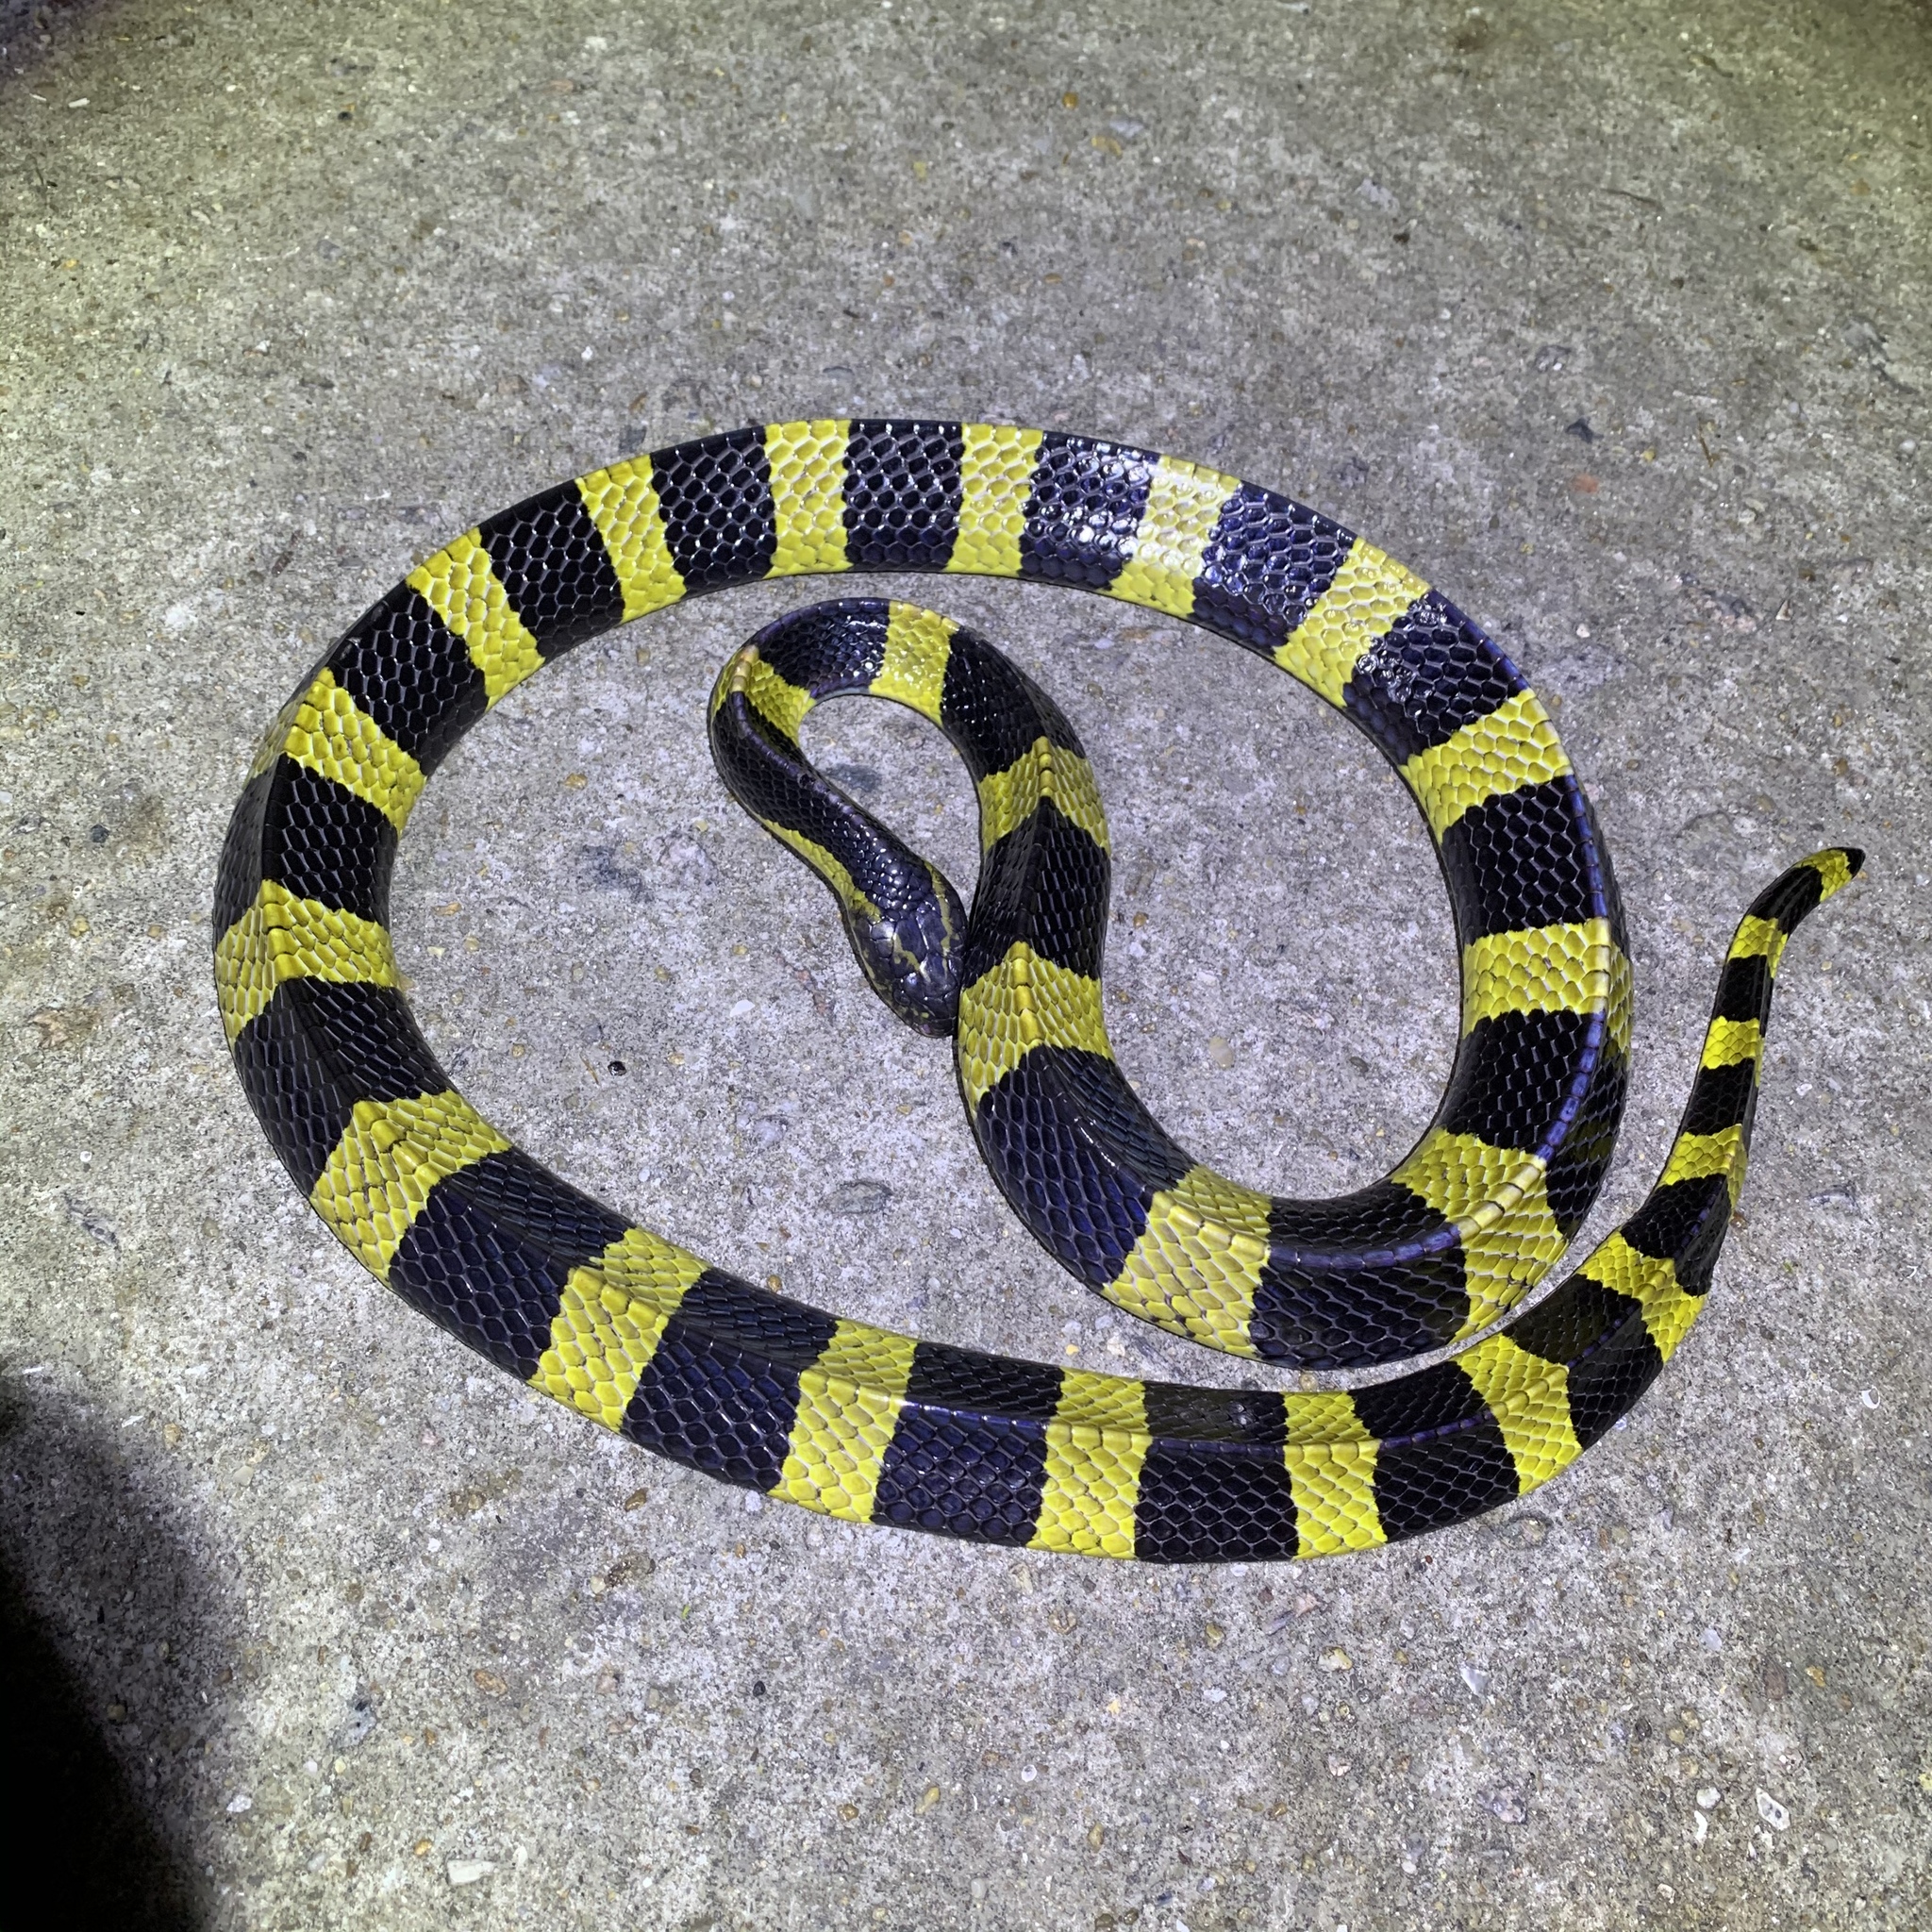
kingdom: Animalia
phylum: Chordata
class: Squamata
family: Elapidae
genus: Bungarus
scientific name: Bungarus fasciatus
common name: Banded krait
